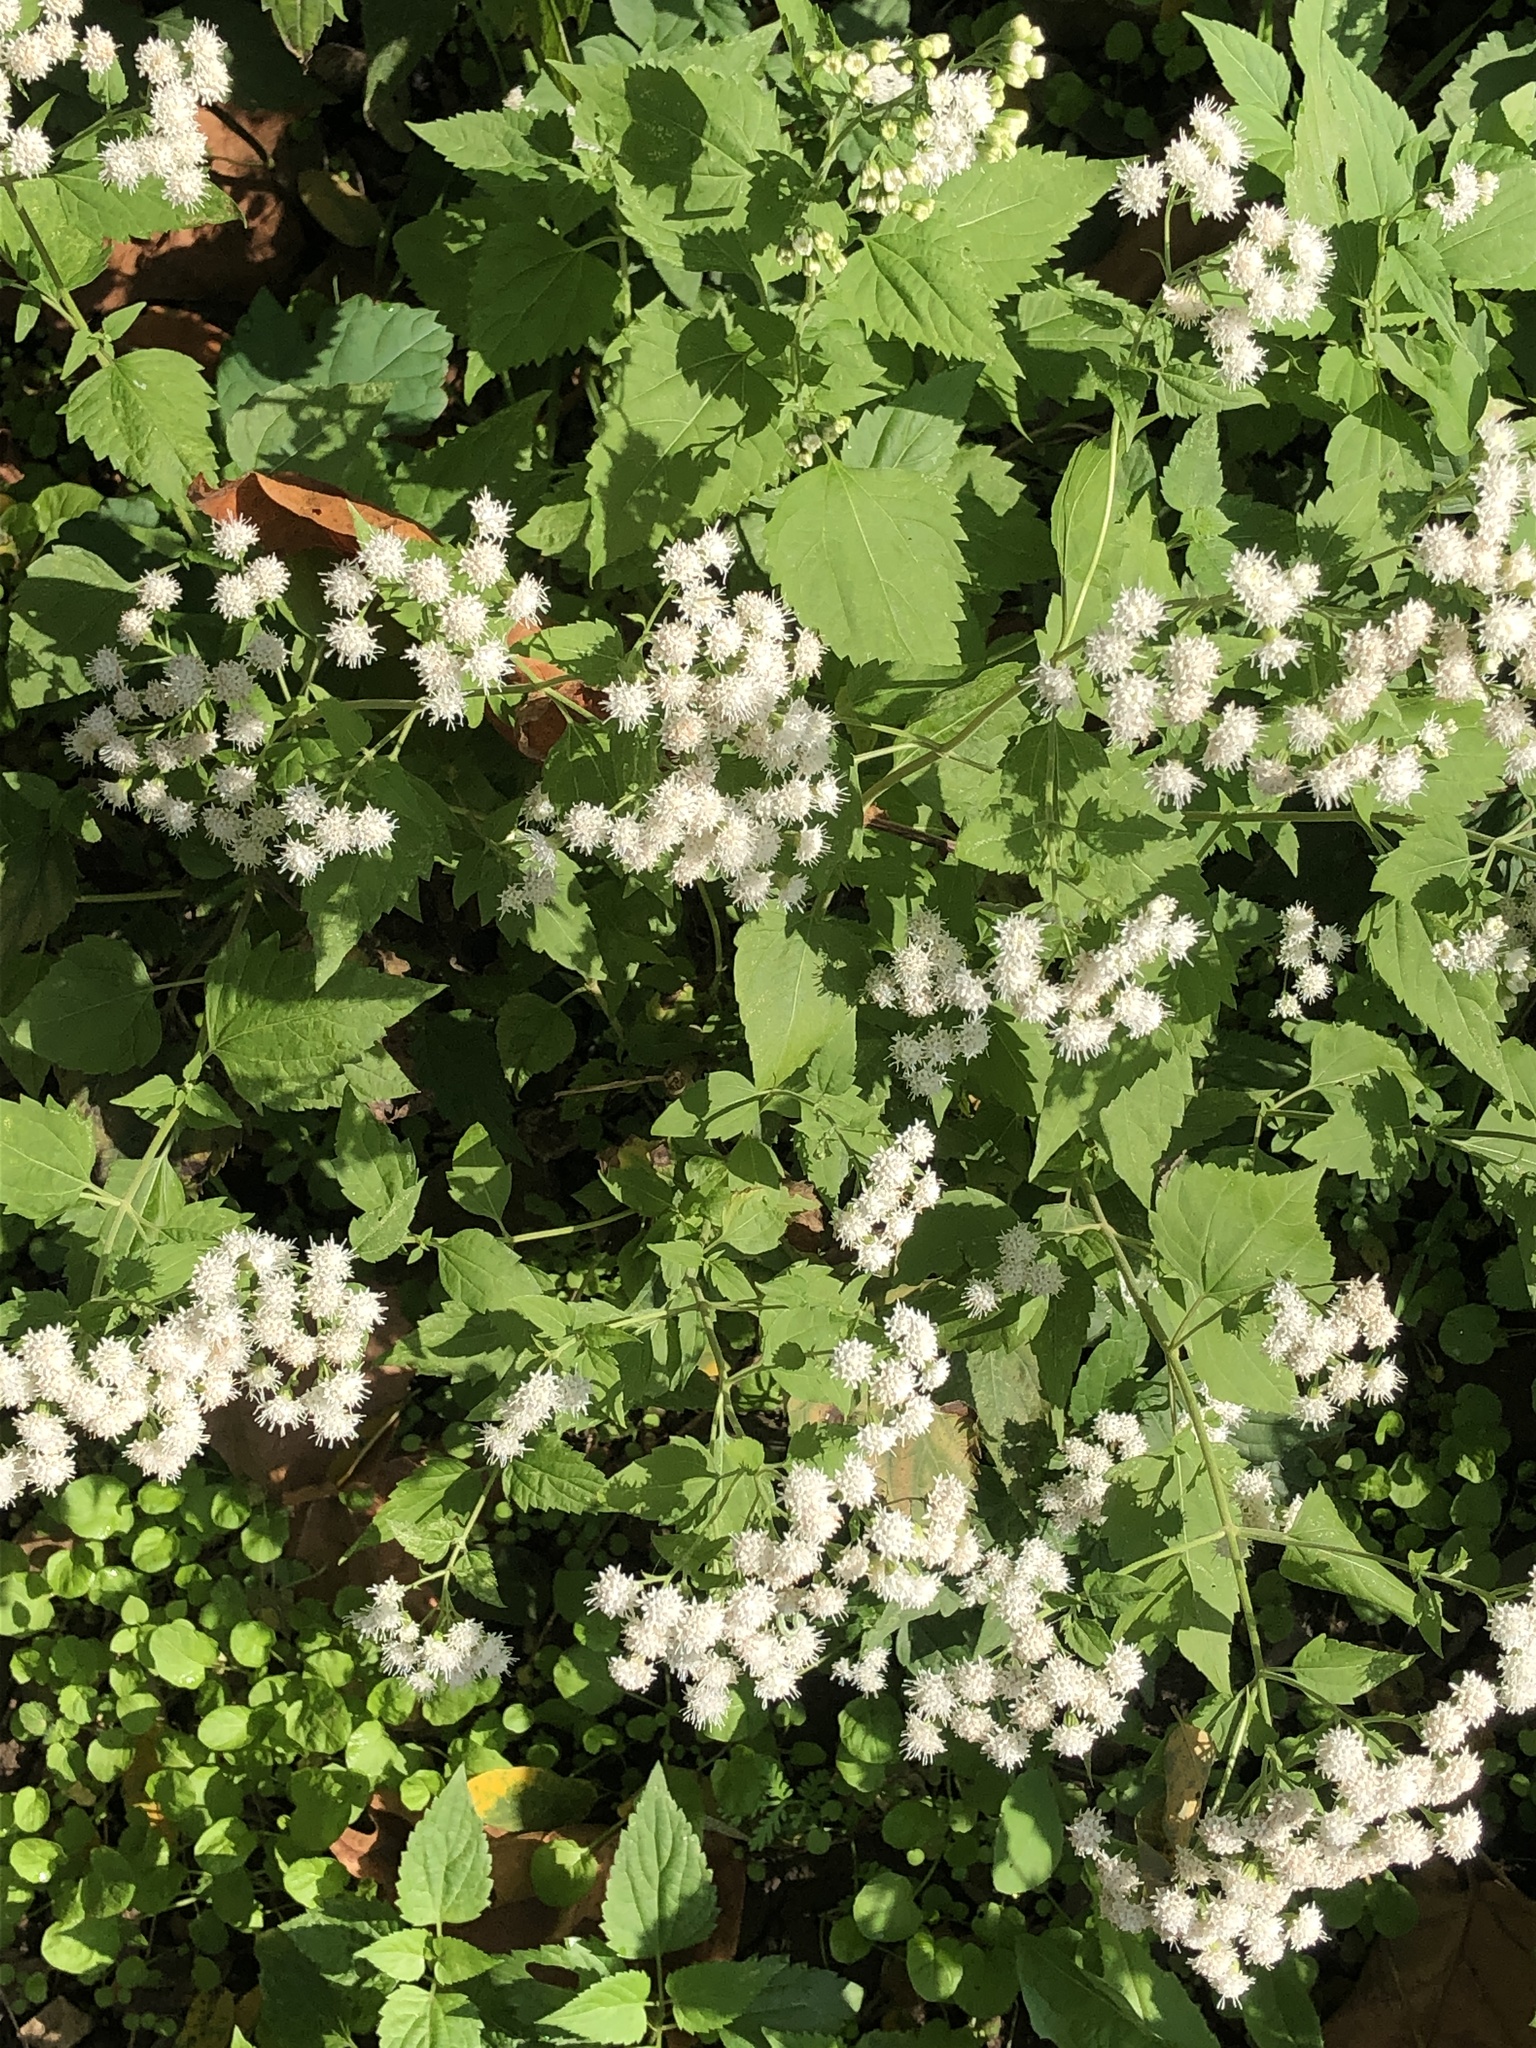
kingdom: Plantae
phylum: Tracheophyta
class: Magnoliopsida
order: Asterales
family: Asteraceae
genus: Ageratina
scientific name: Ageratina altissima
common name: White snakeroot
